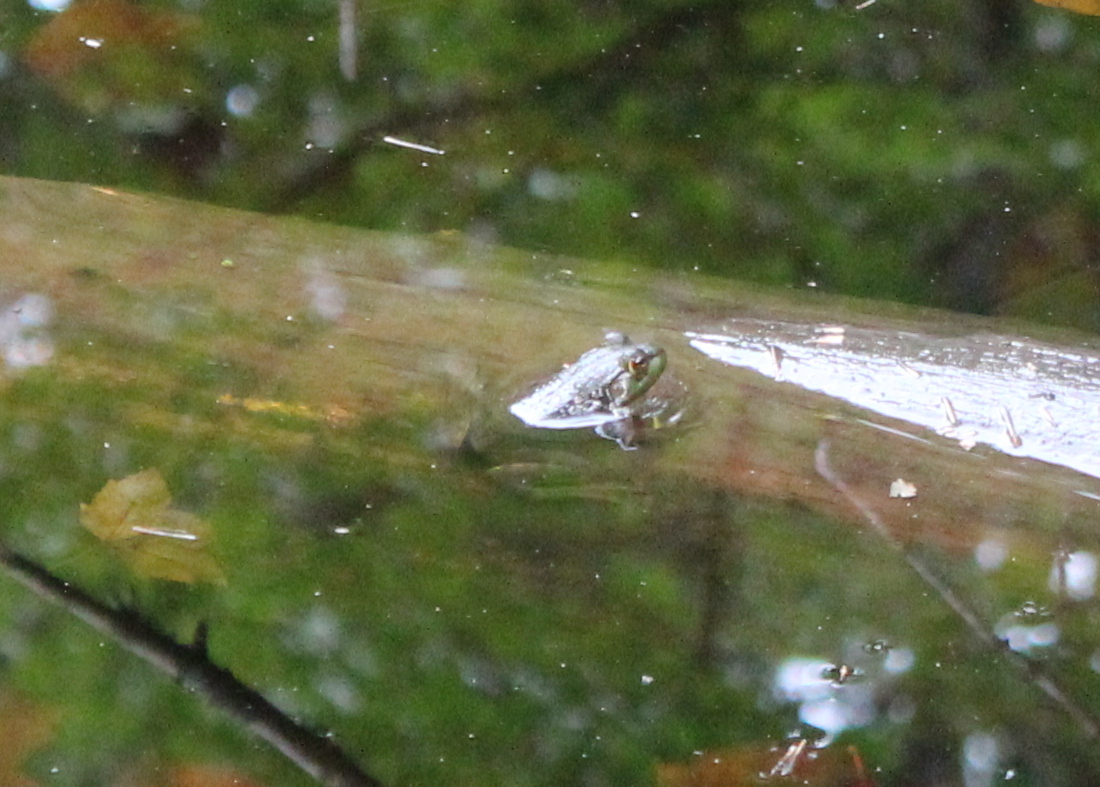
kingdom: Animalia
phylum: Chordata
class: Amphibia
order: Anura
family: Ranidae
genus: Lithobates
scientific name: Lithobates catesbeianus
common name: American bullfrog
